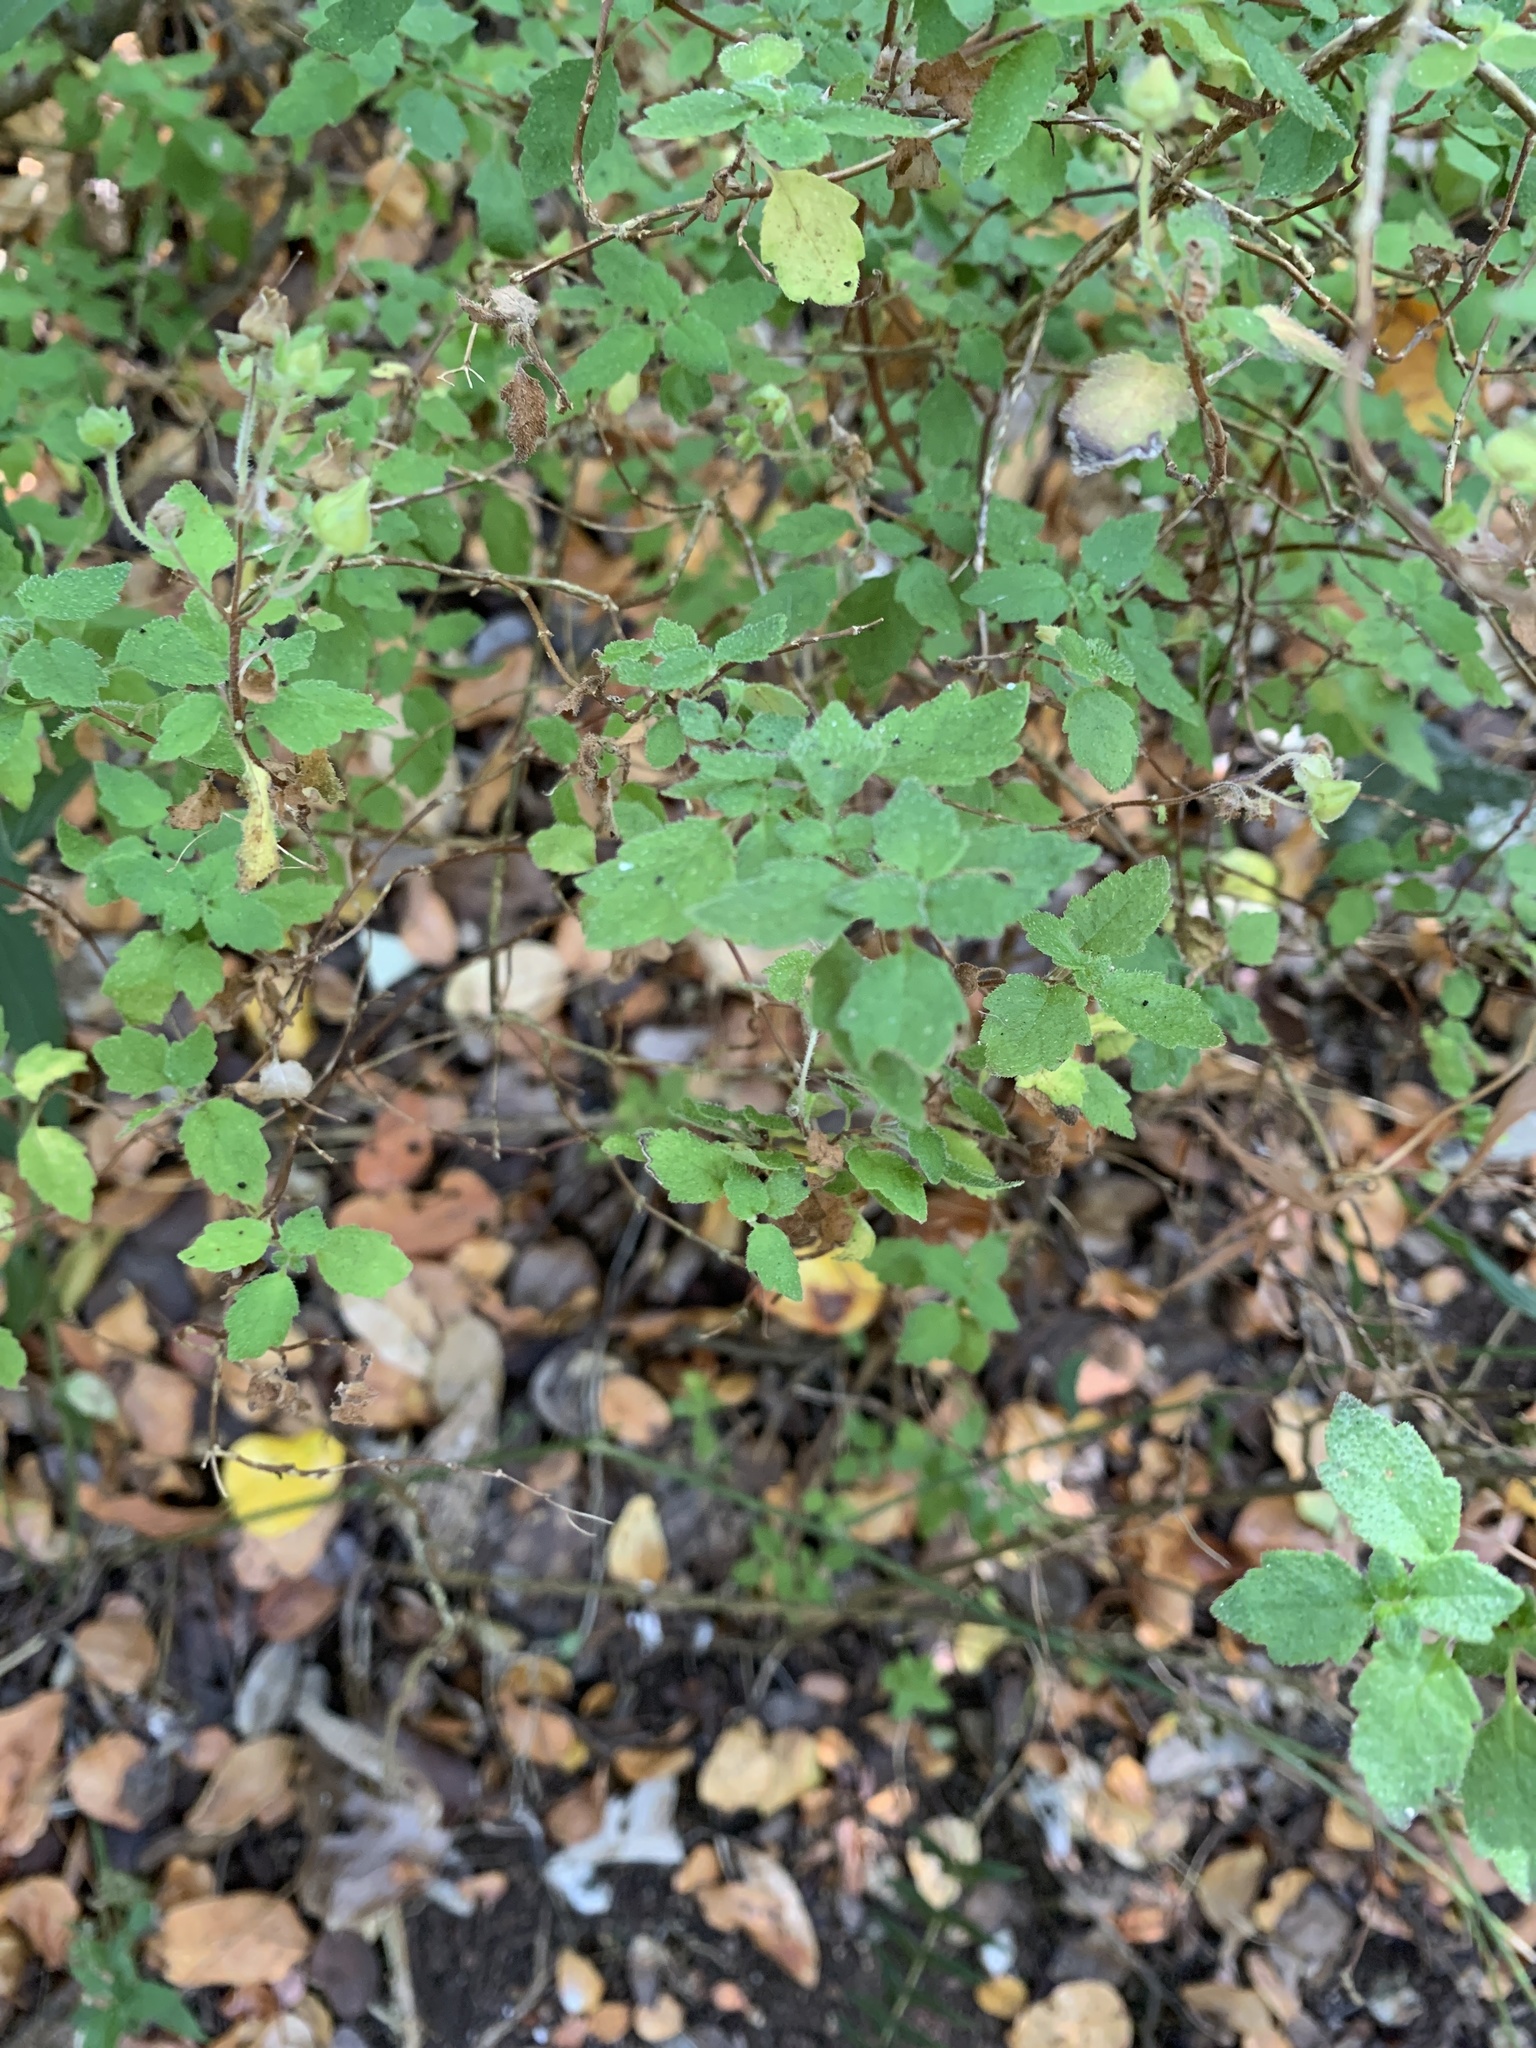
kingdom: Plantae
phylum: Tracheophyta
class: Magnoliopsida
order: Lamiales
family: Calceolariaceae
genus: Jovellana
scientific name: Jovellana violacea
